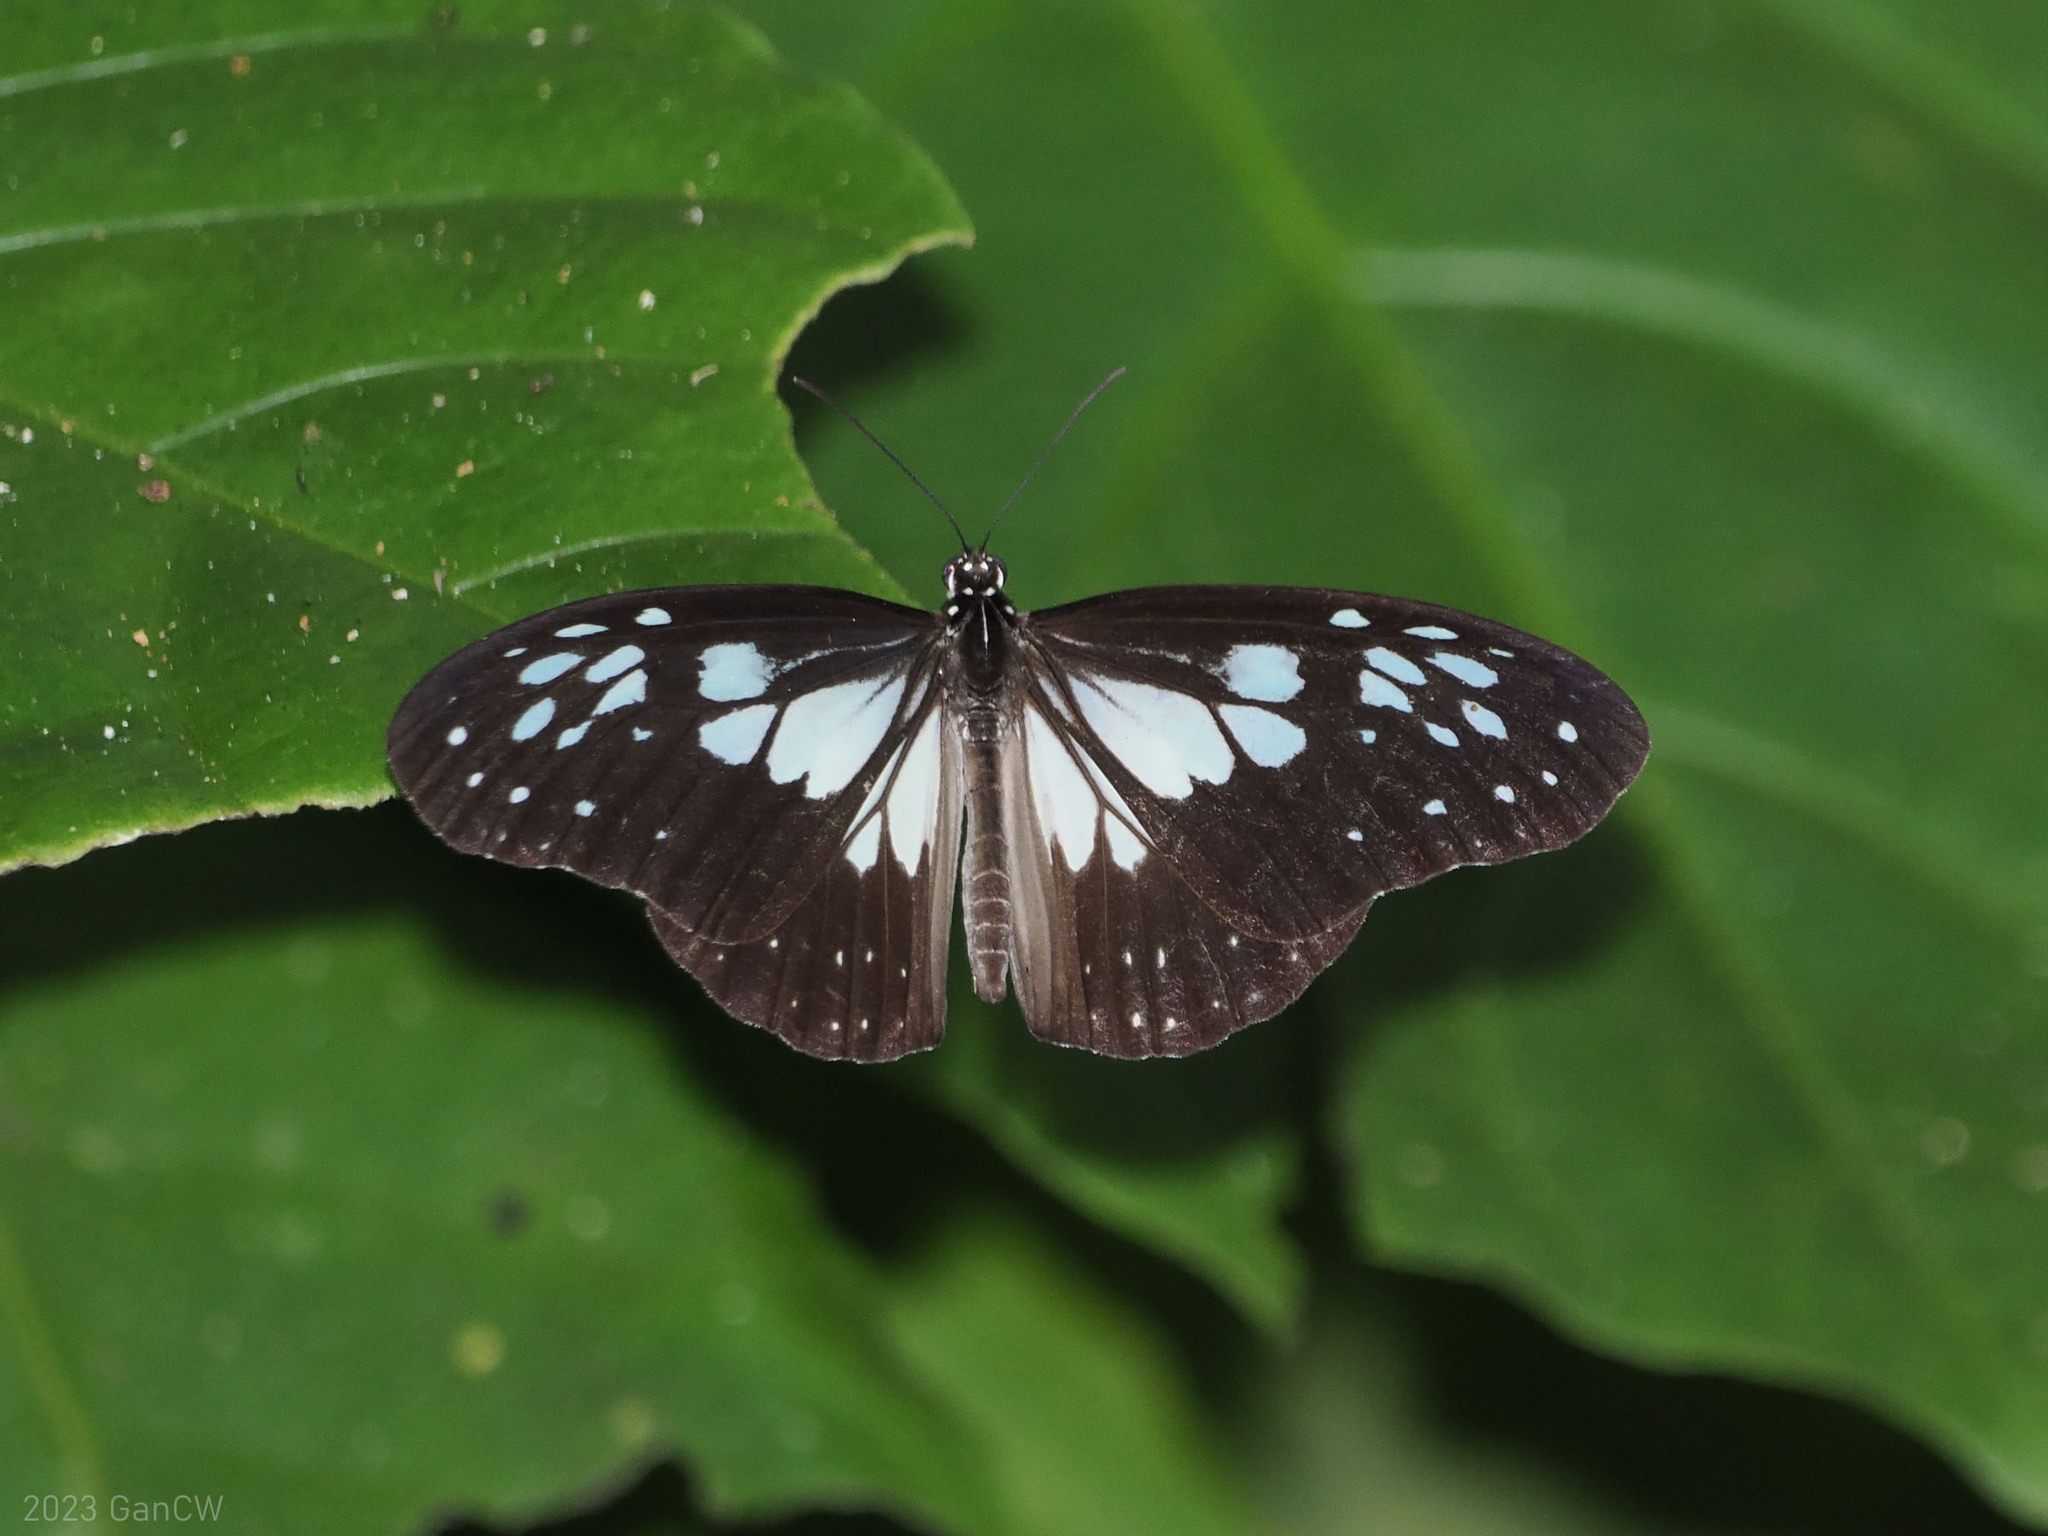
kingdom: Animalia
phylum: Arthropoda
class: Insecta
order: Lepidoptera
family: Nymphalidae
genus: Ideopsis
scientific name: Ideopsis juventa
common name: Grey glassy tiger
